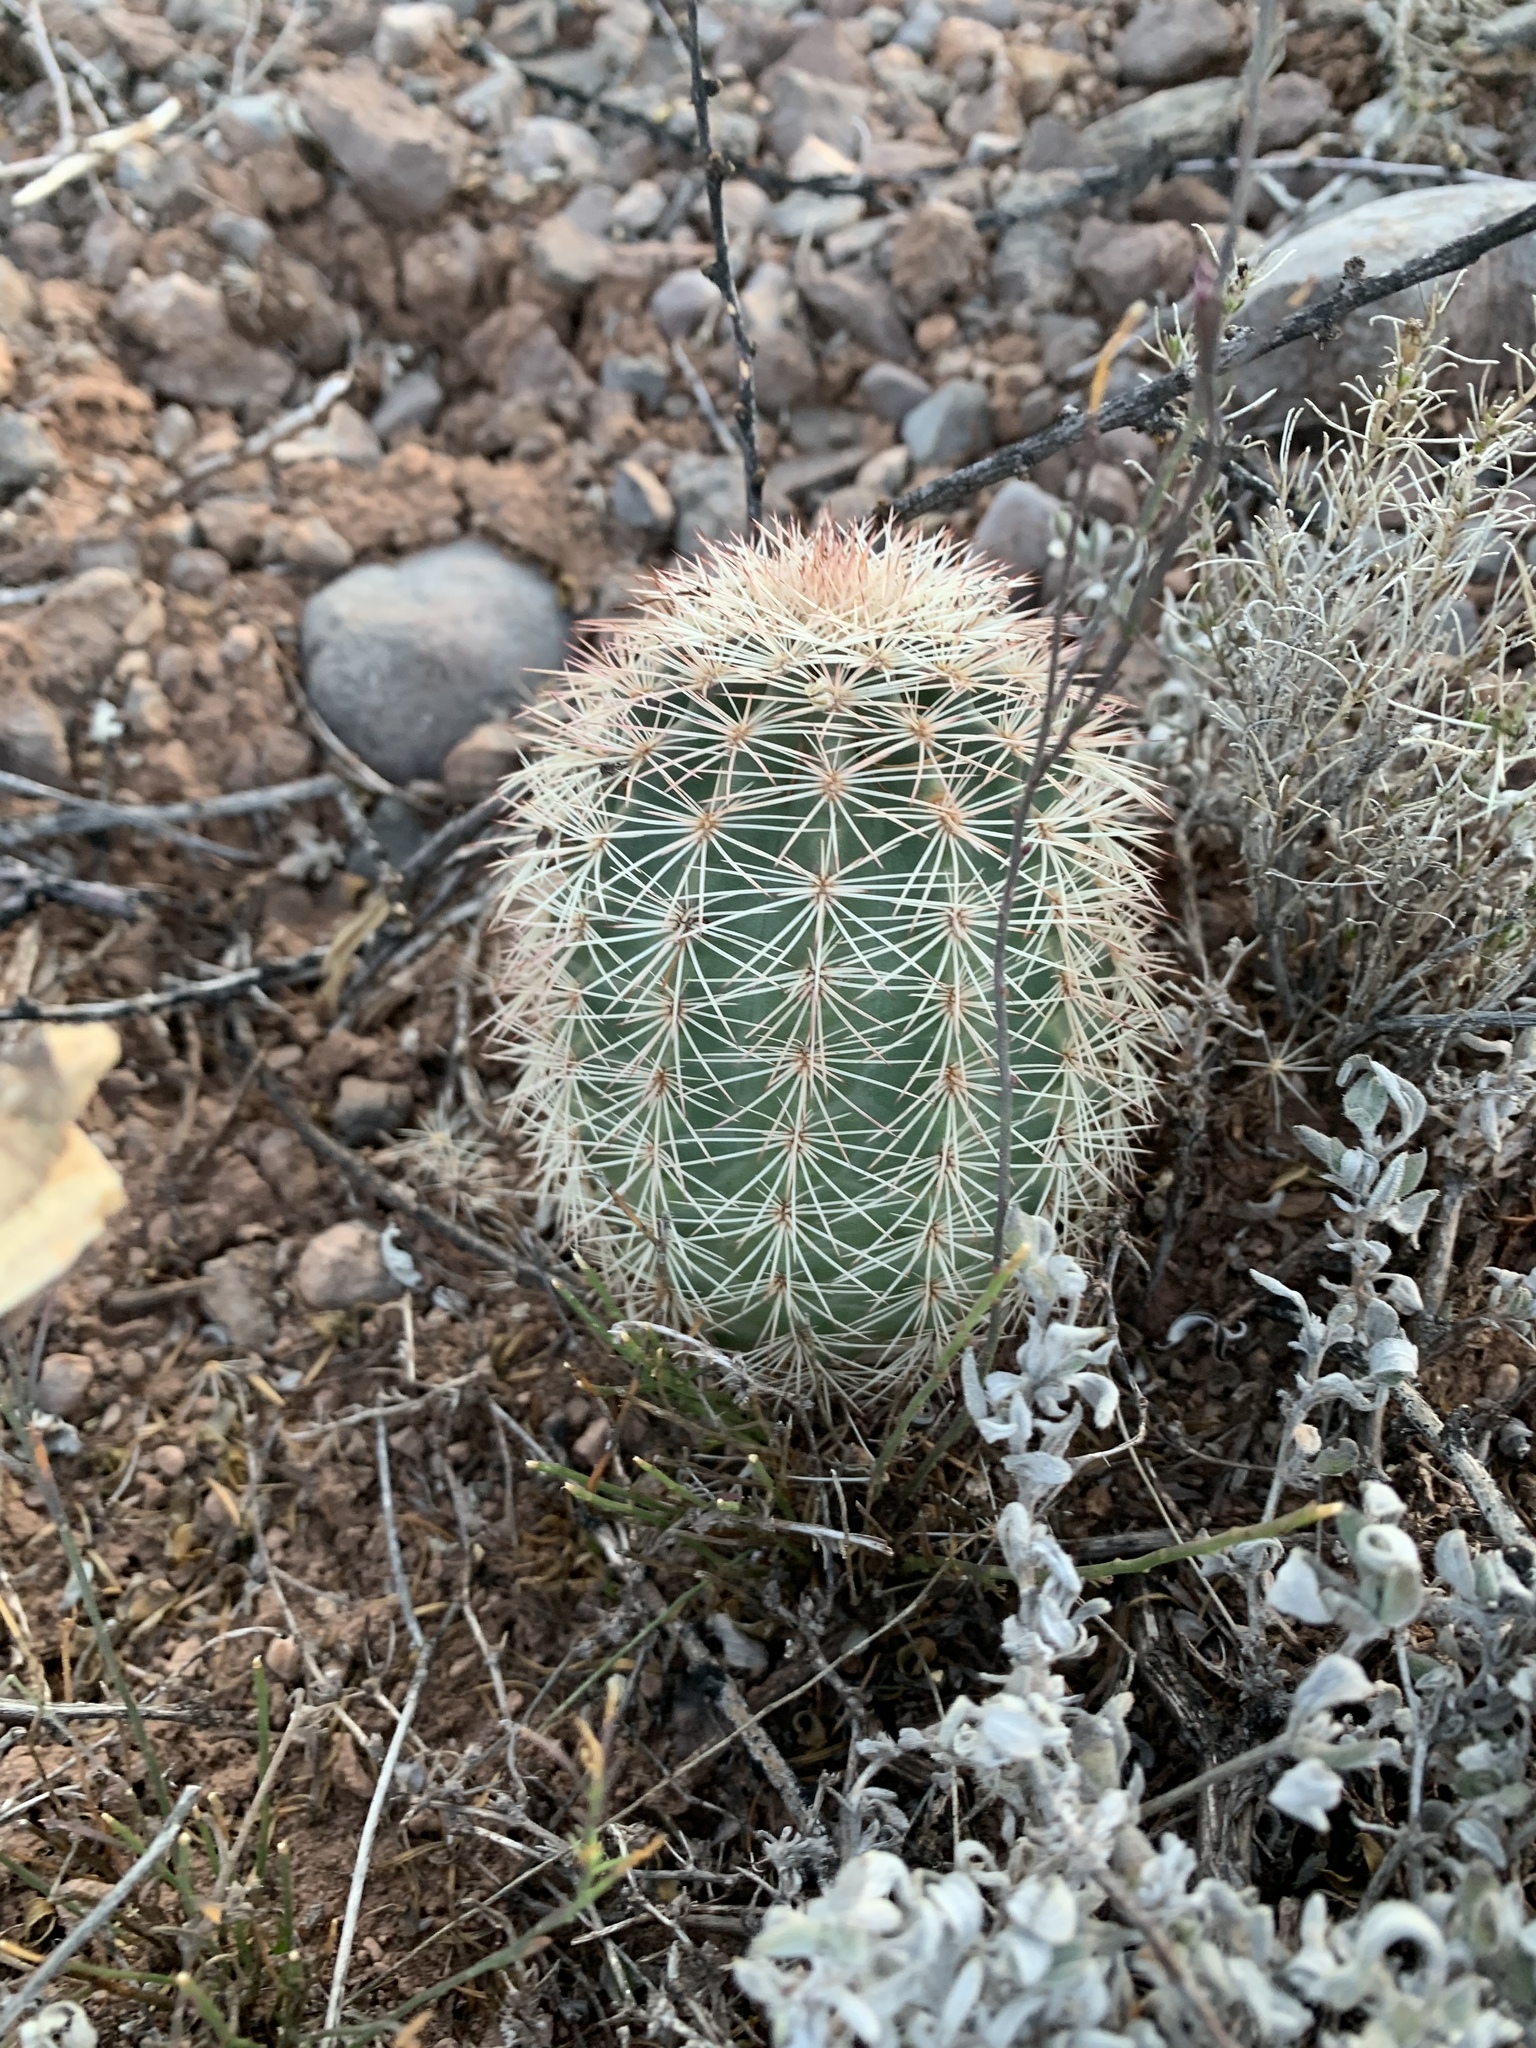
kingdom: Plantae
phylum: Tracheophyta
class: Magnoliopsida
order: Caryophyllales
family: Cactaceae
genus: Echinocereus
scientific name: Echinocereus dasyacanthus
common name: Spiny hedgehog cactus
